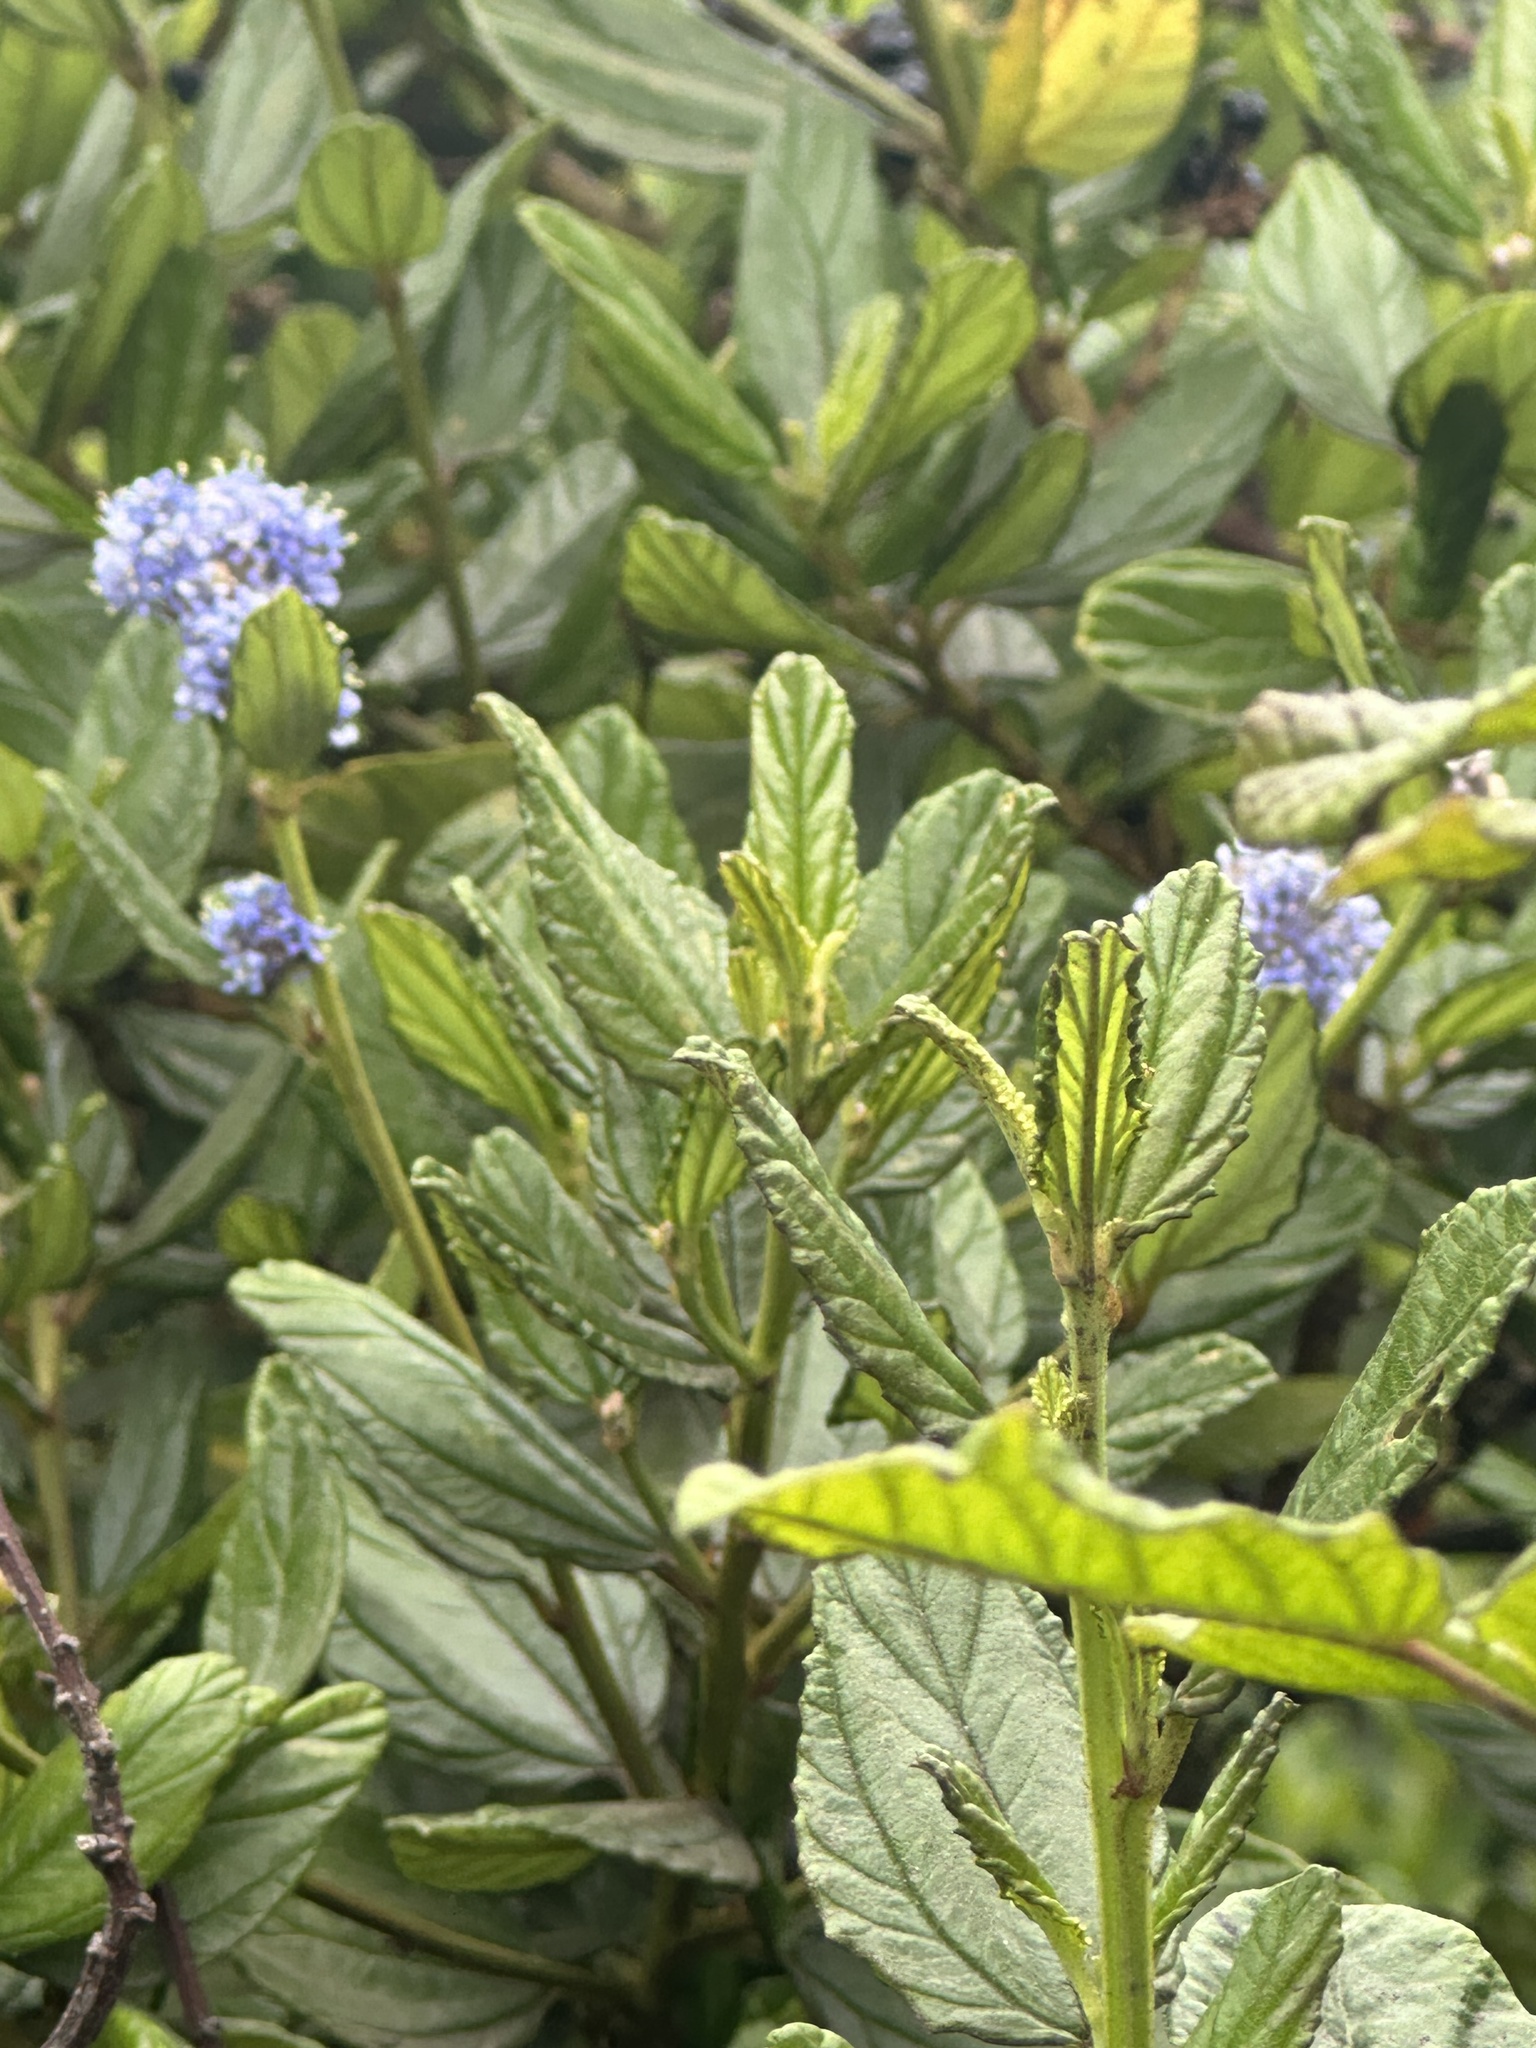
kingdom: Plantae
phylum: Tracheophyta
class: Magnoliopsida
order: Rosales
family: Rhamnaceae
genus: Ceanothus
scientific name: Ceanothus griseus
